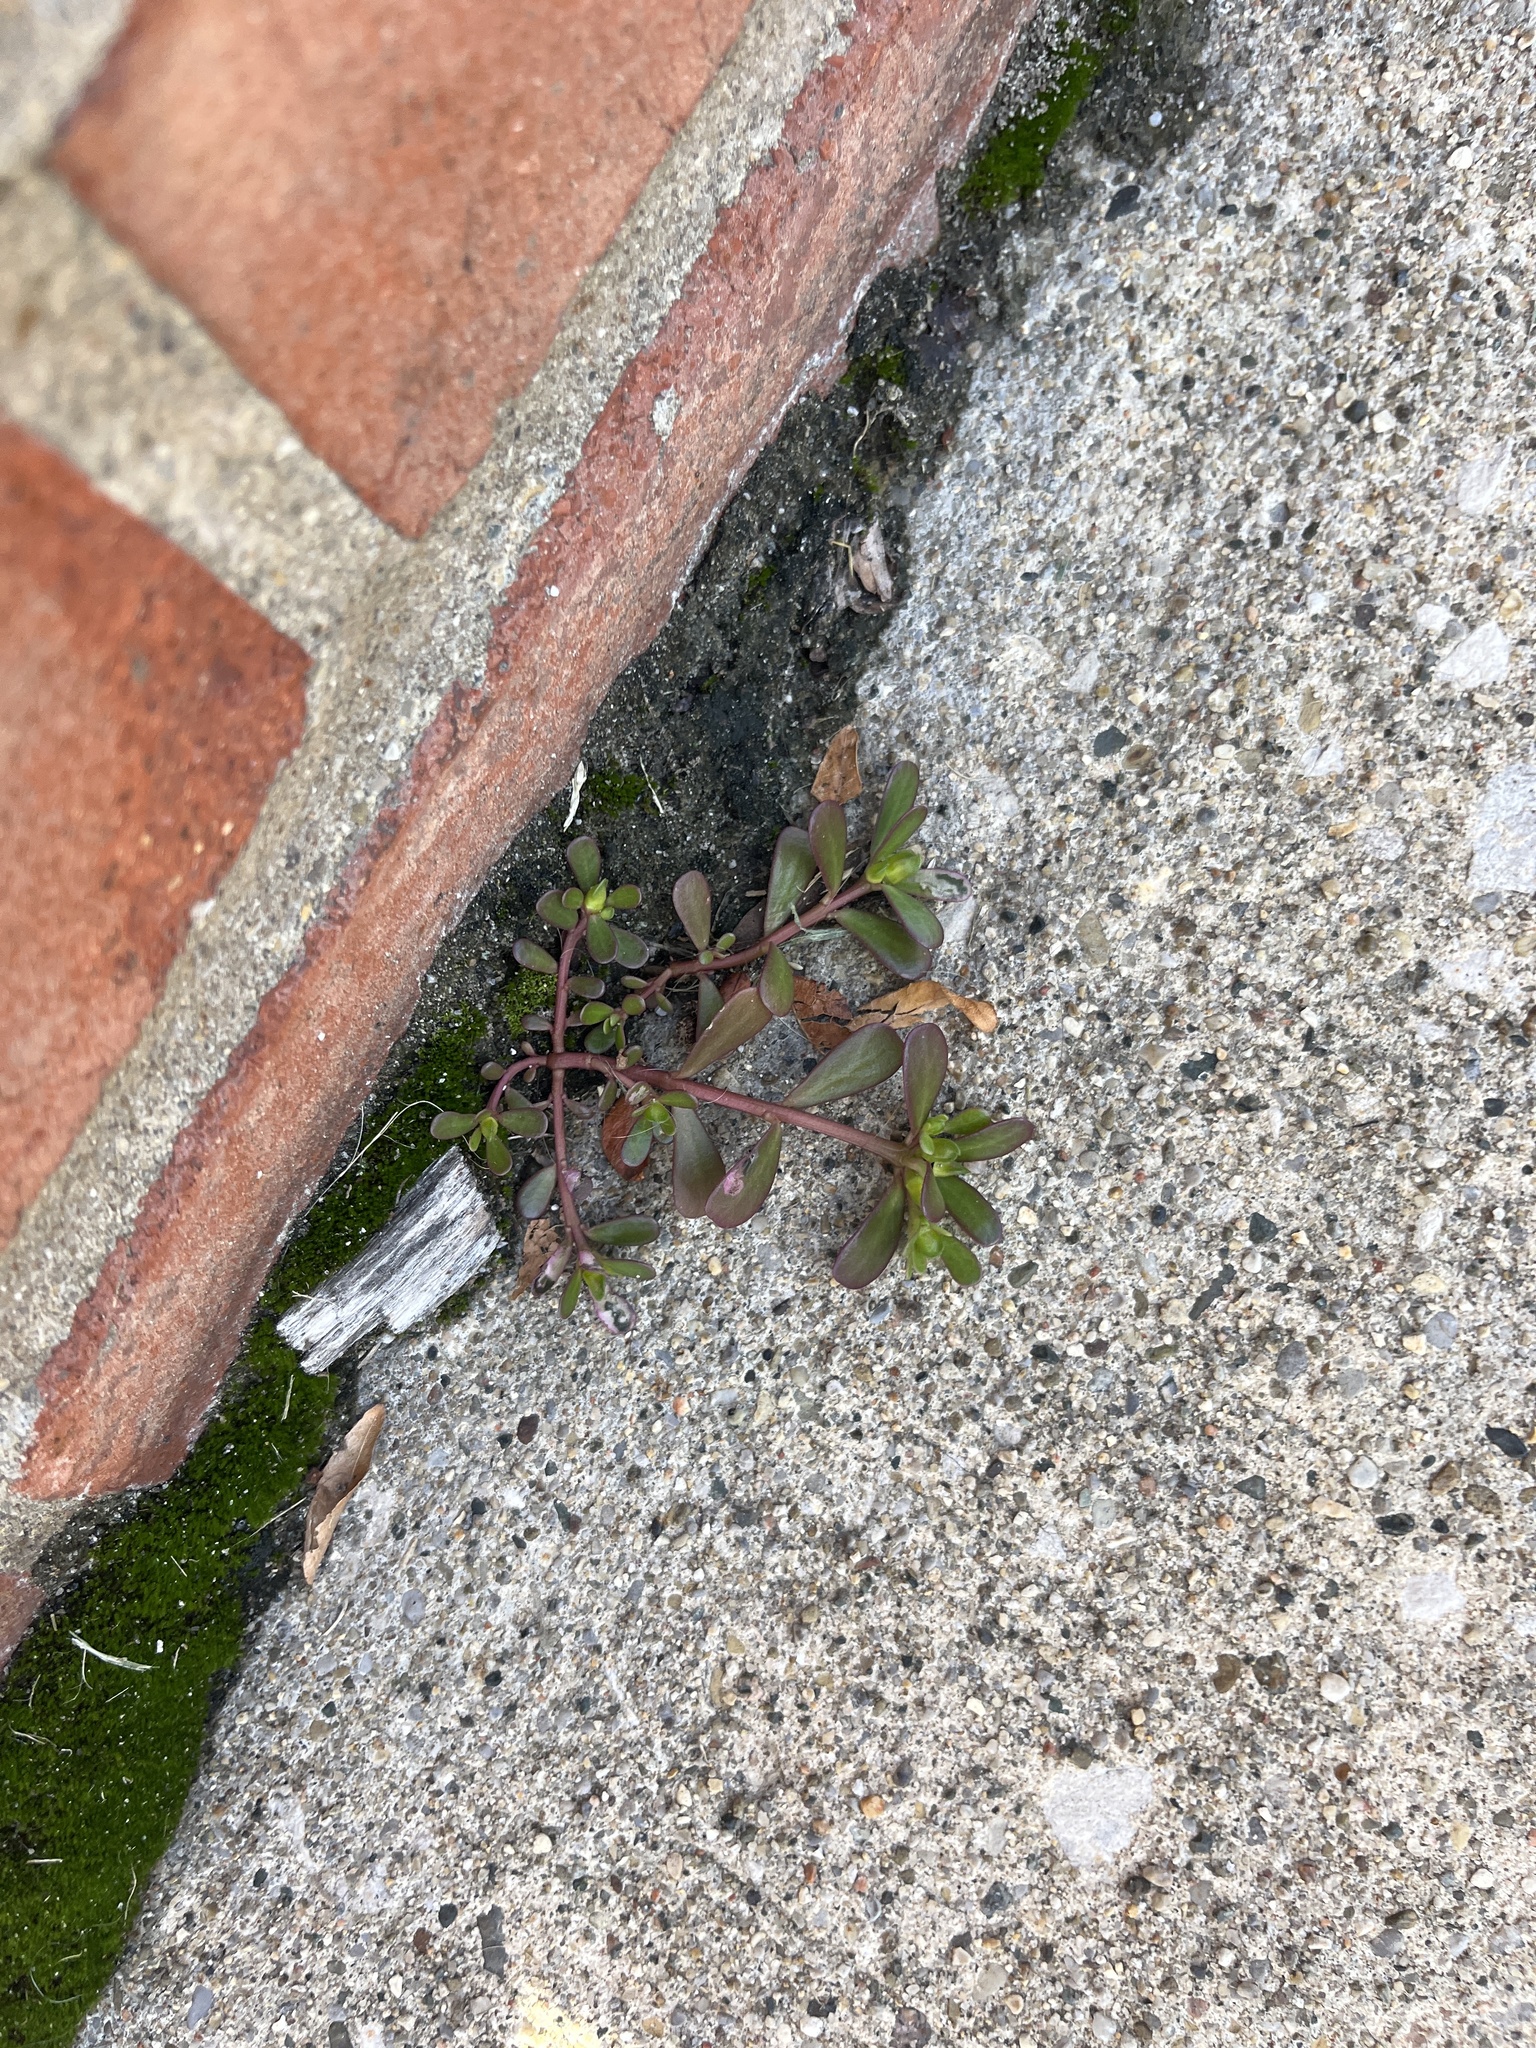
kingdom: Plantae
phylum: Tracheophyta
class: Magnoliopsida
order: Caryophyllales
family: Portulacaceae
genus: Portulaca
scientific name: Portulaca oleracea
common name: Common purslane
